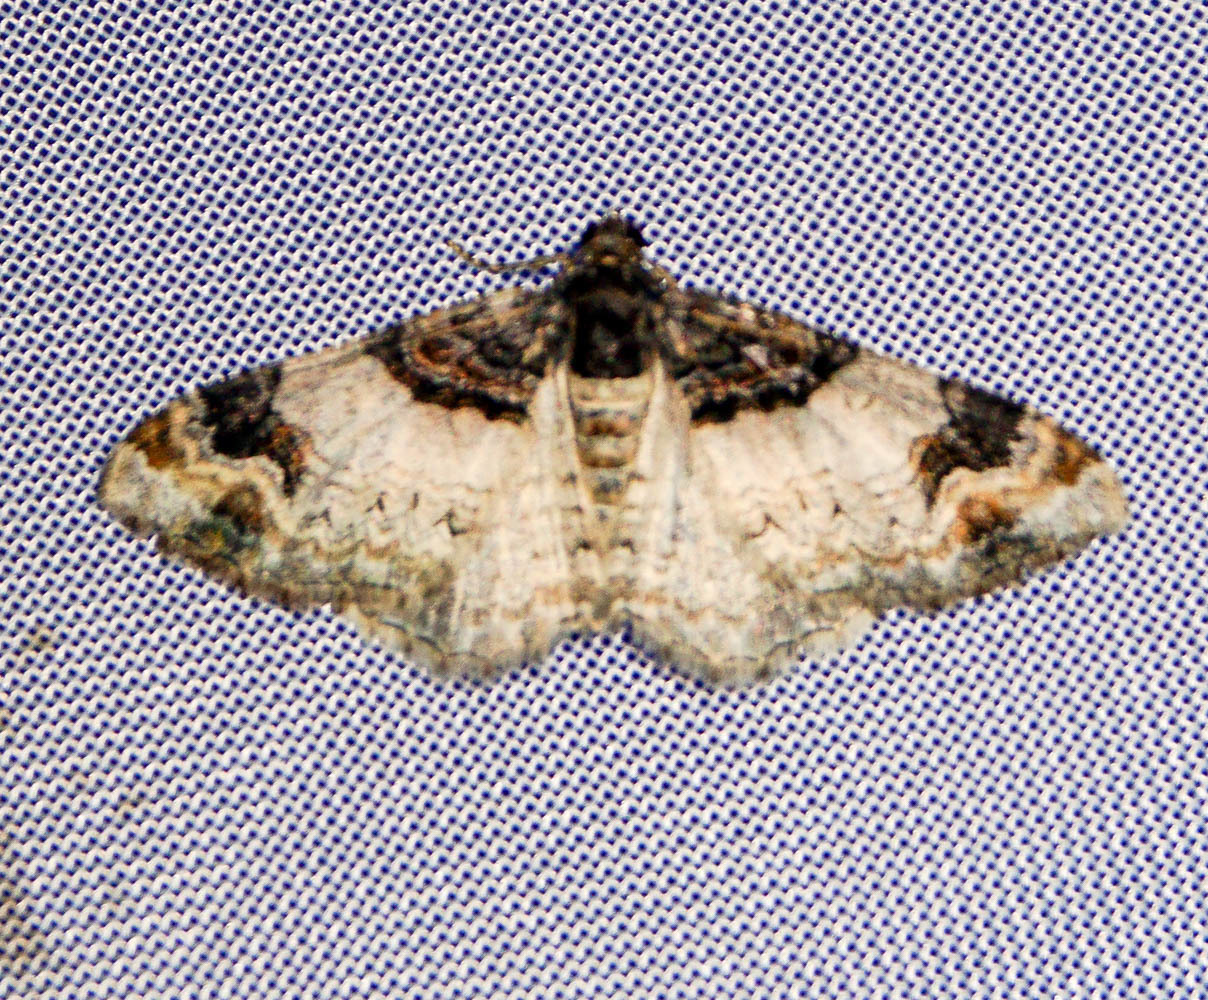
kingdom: Animalia
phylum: Arthropoda
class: Insecta
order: Lepidoptera
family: Geometridae
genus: Catarhoe
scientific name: Catarhoe cuculata
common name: Royal mantle
